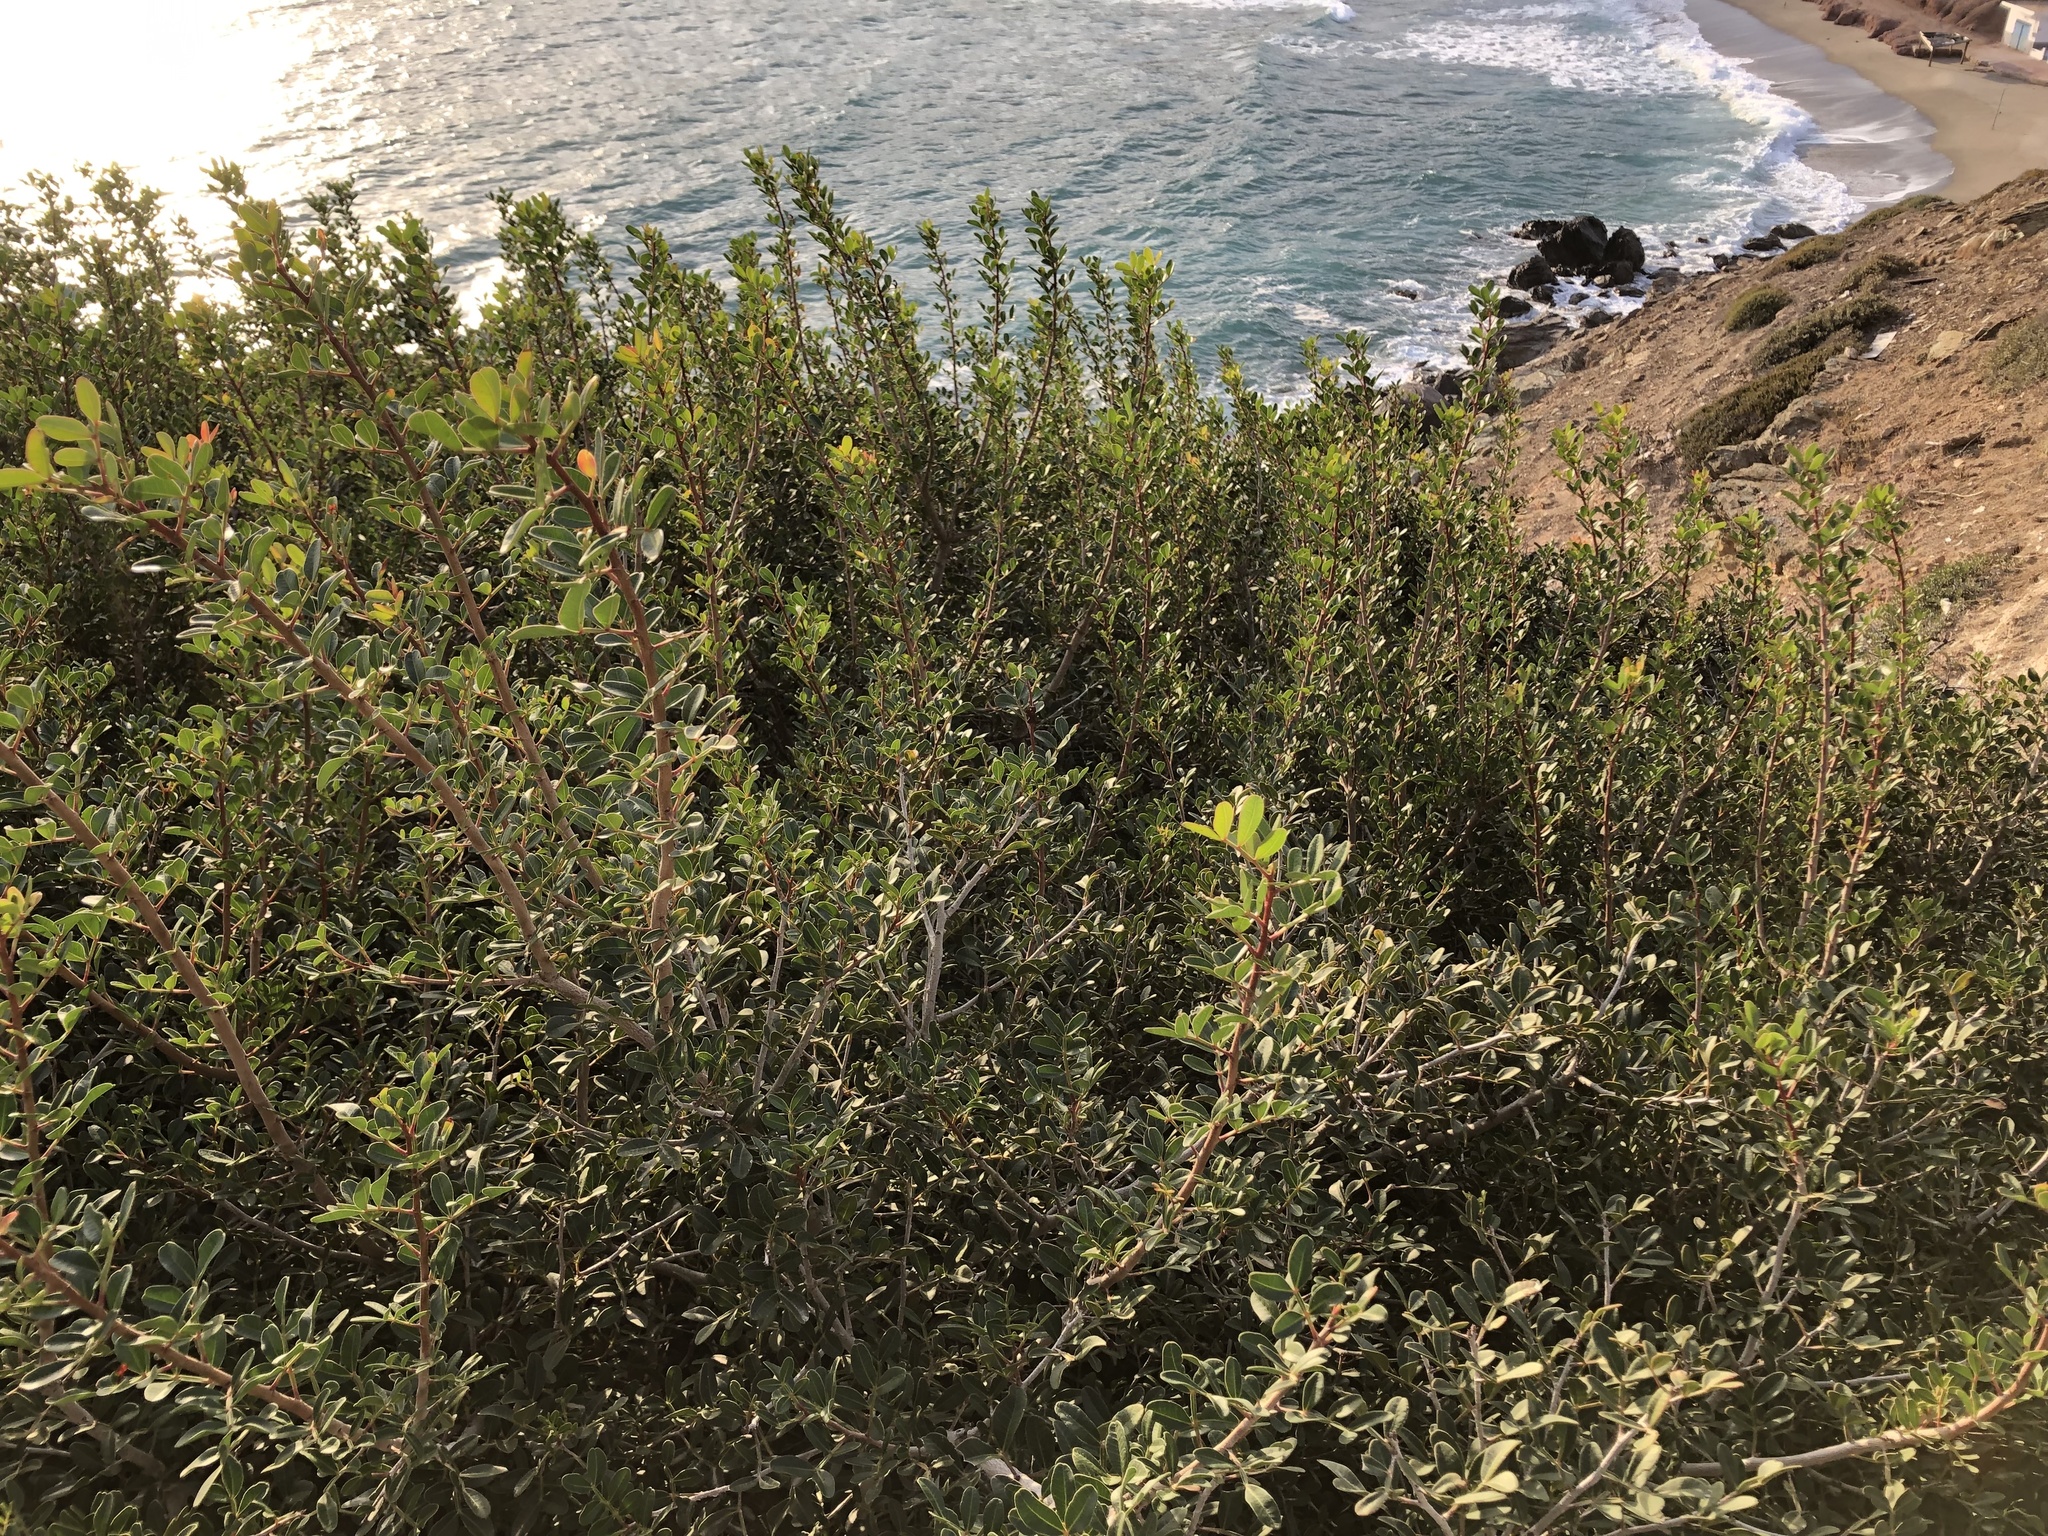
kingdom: Plantae
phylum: Tracheophyta
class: Magnoliopsida
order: Sapindales
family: Anacardiaceae
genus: Pistacia
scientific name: Pistacia lentiscus
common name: Lentisk
